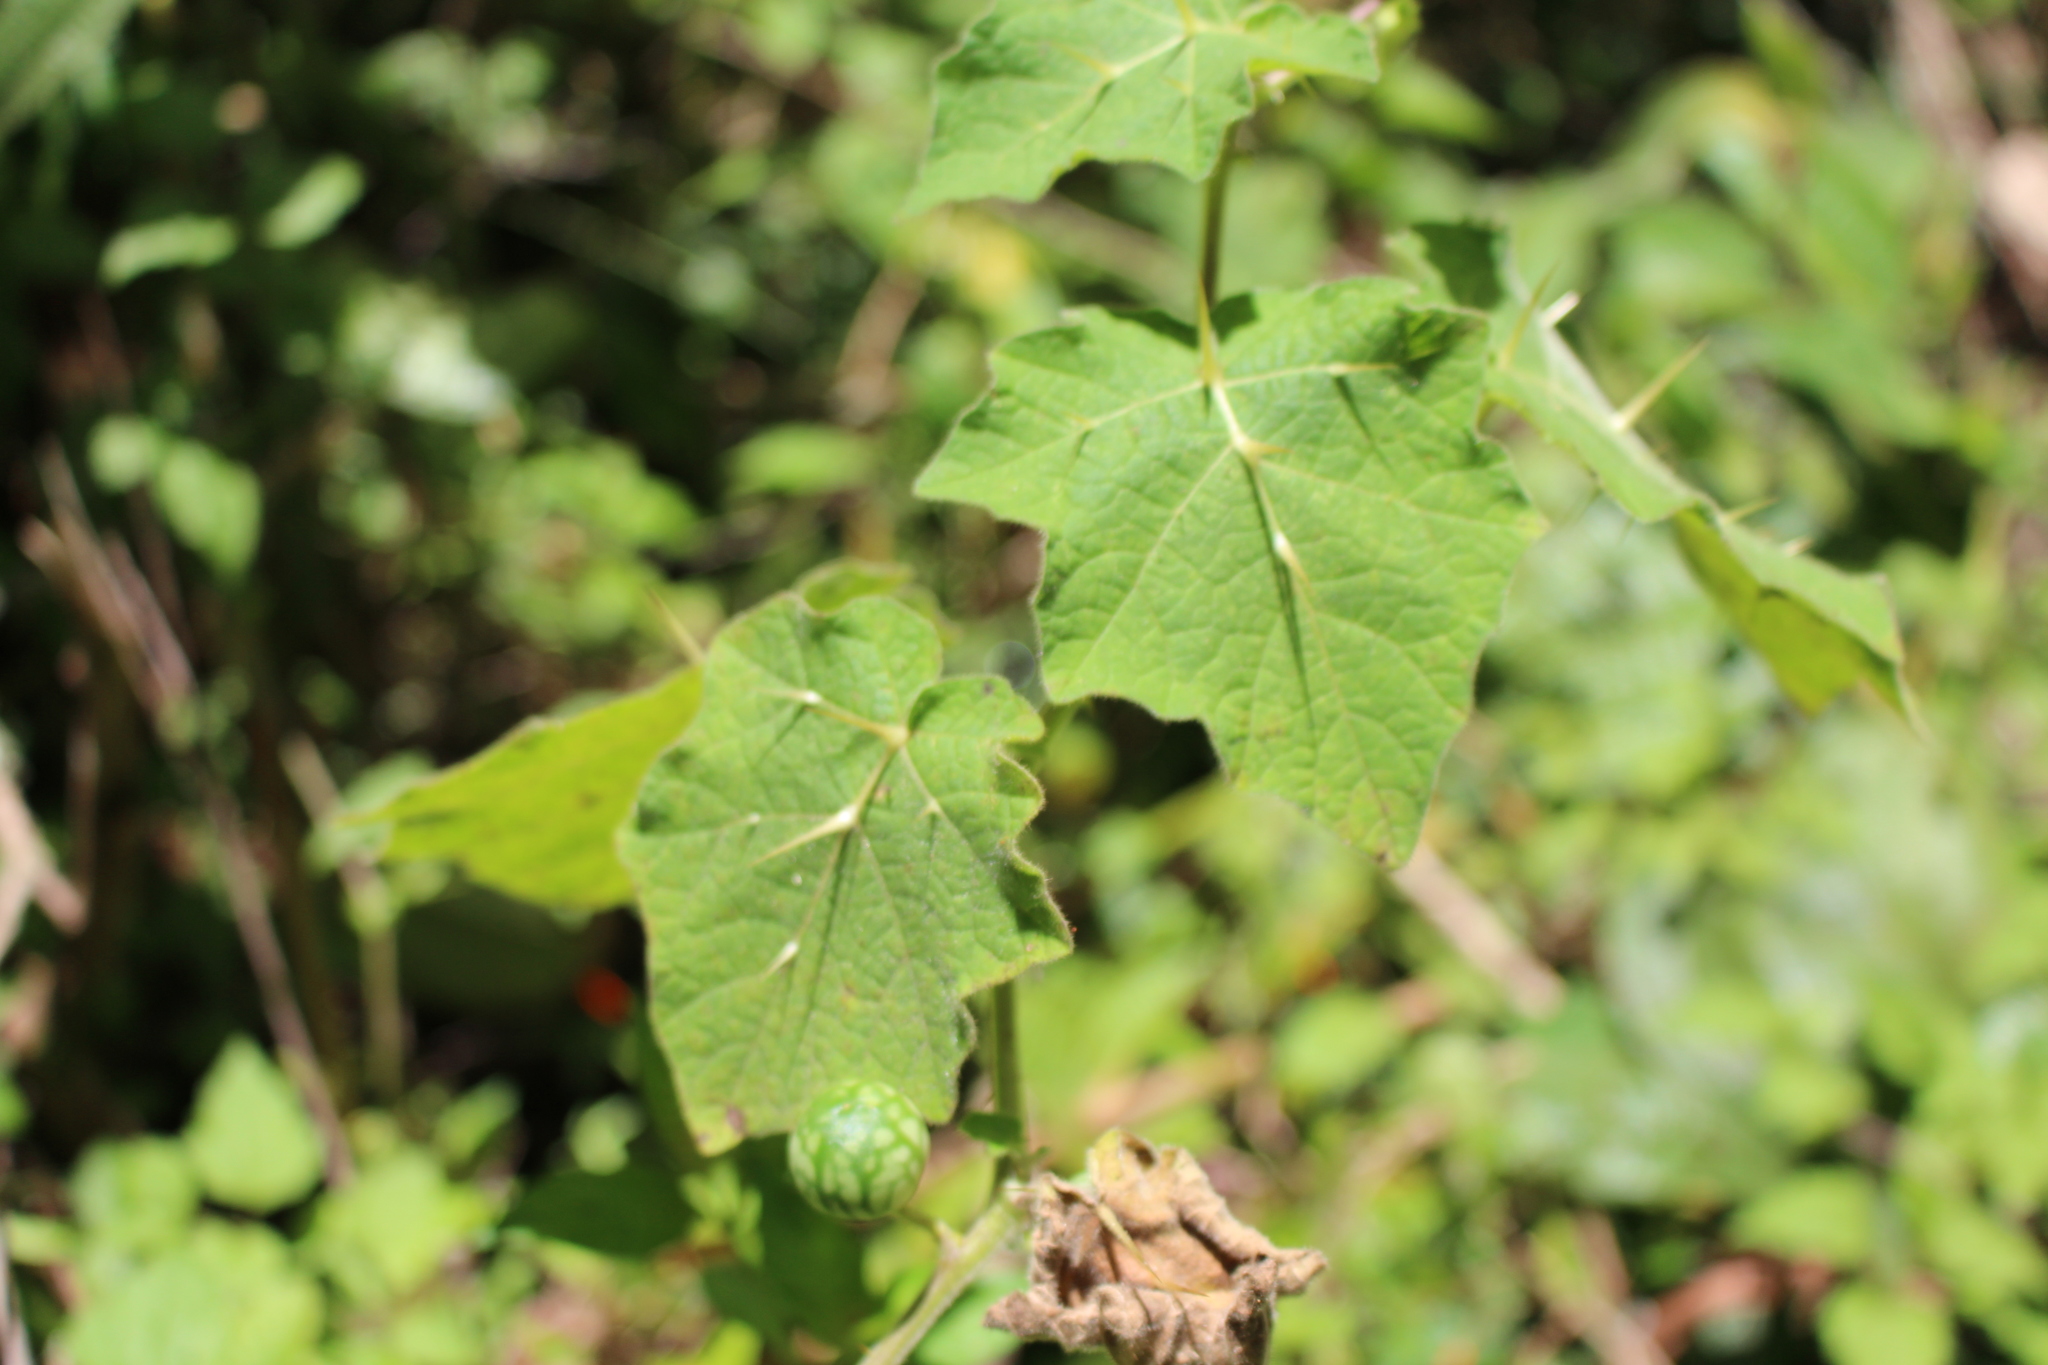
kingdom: Plantae
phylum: Tracheophyta
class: Magnoliopsida
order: Solanales
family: Solanaceae
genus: Solanum
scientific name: Solanum viarum
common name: Tropical soda apple
